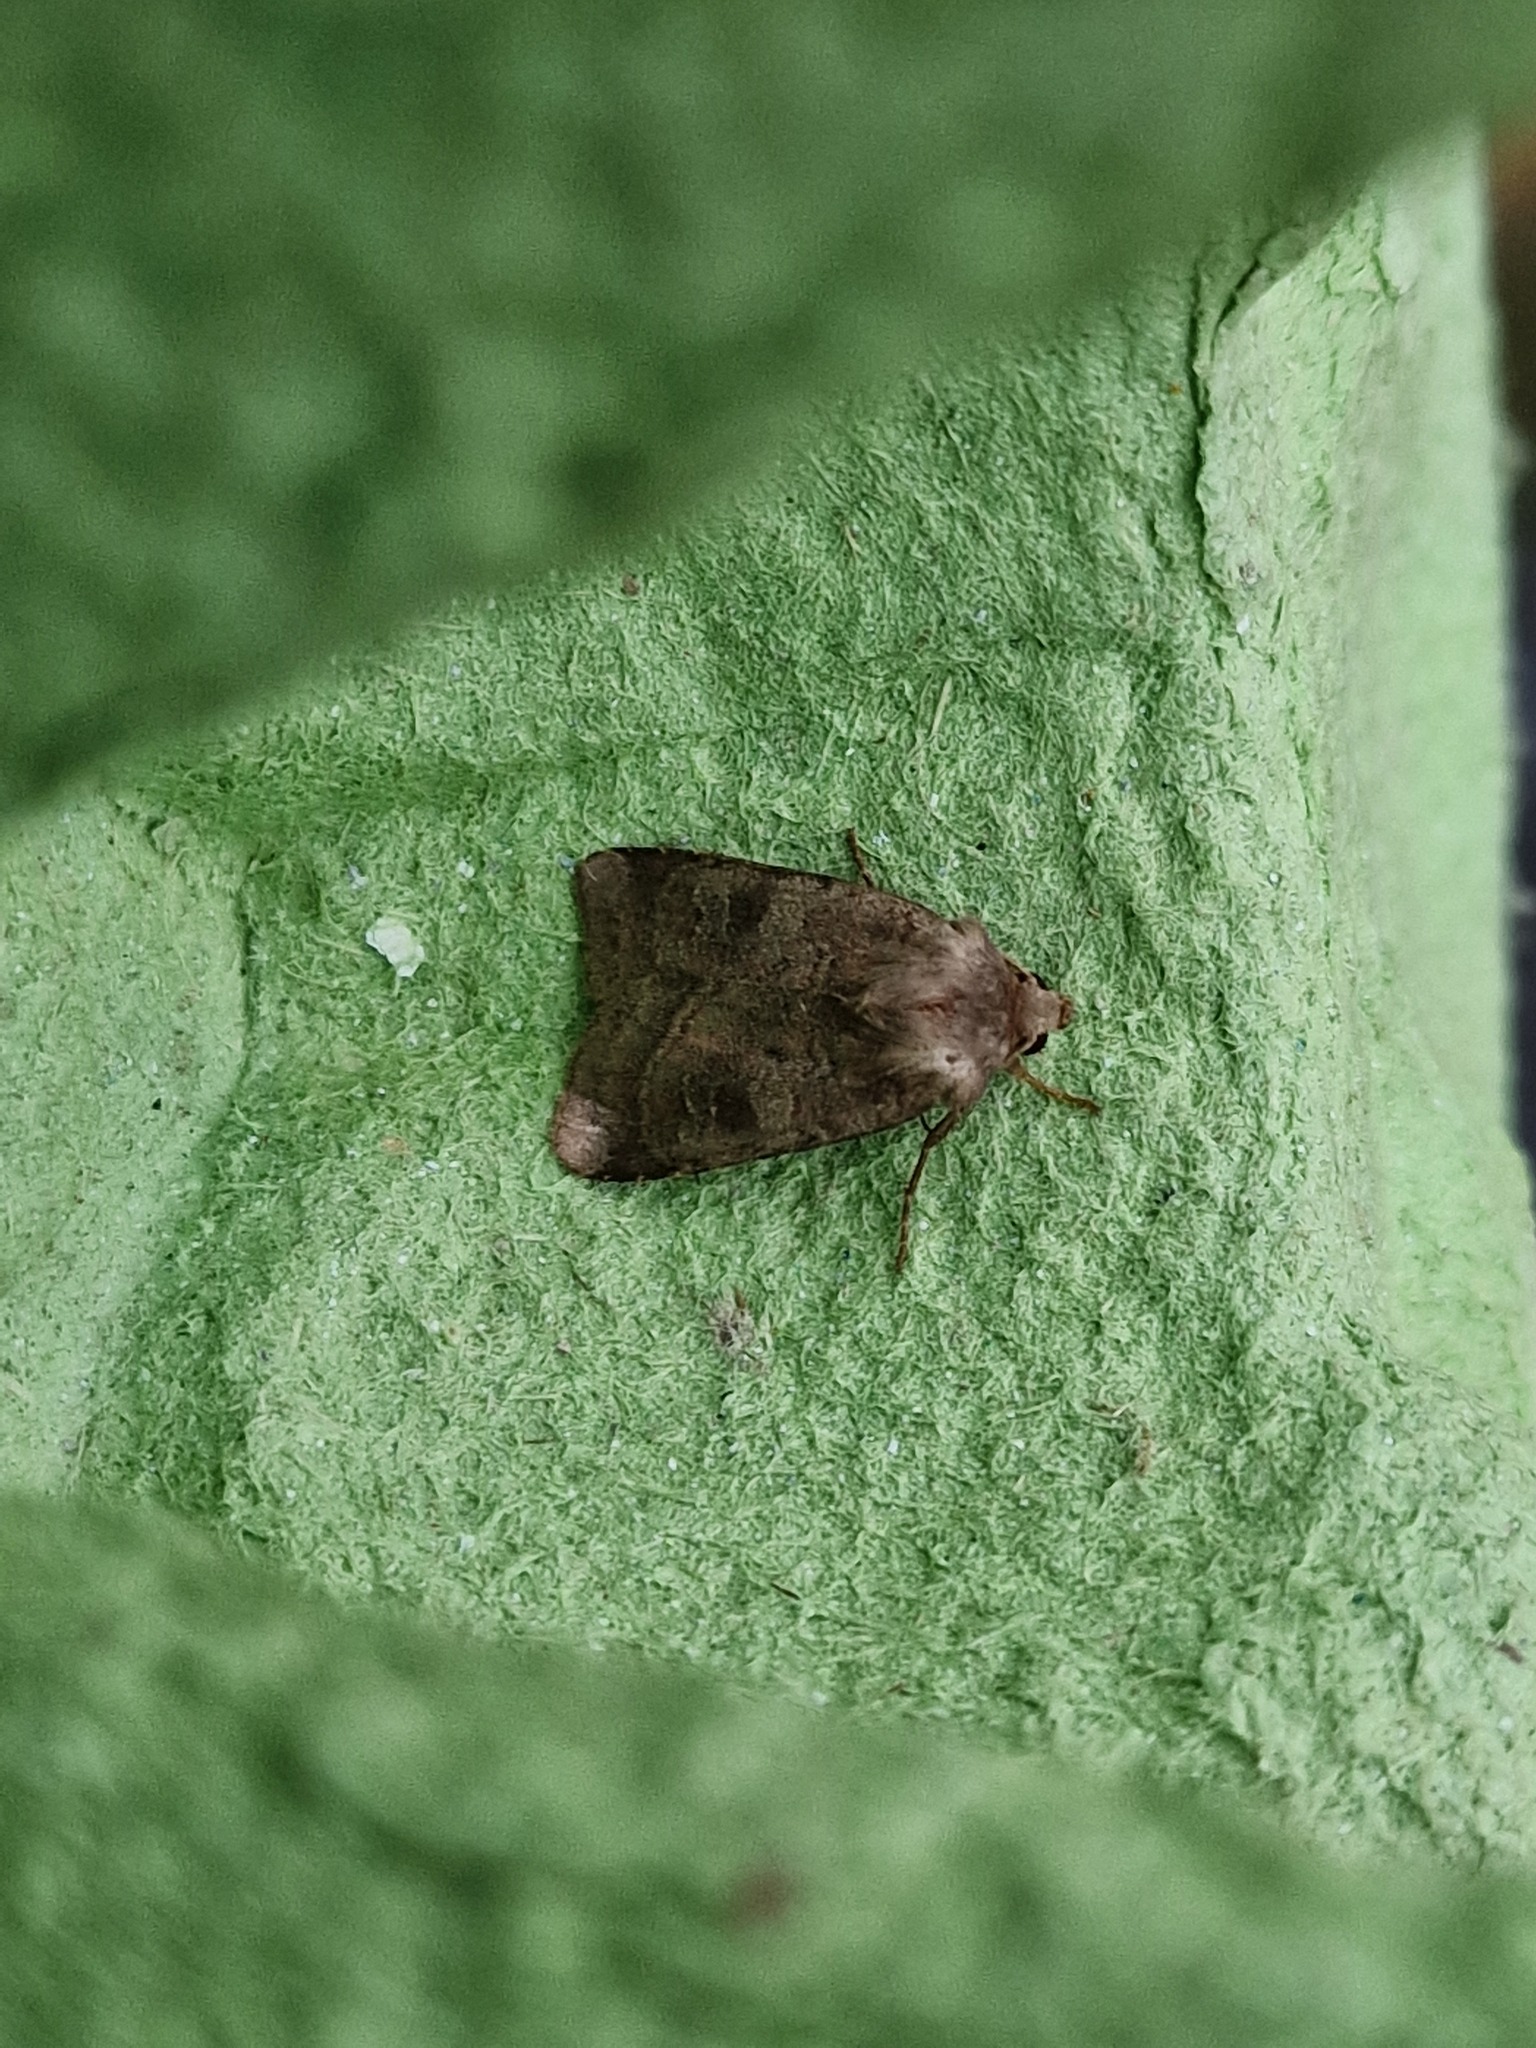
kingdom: Animalia
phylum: Arthropoda
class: Insecta
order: Lepidoptera
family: Noctuidae
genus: Diarsia
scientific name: Diarsia rubi
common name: Small square-spot
